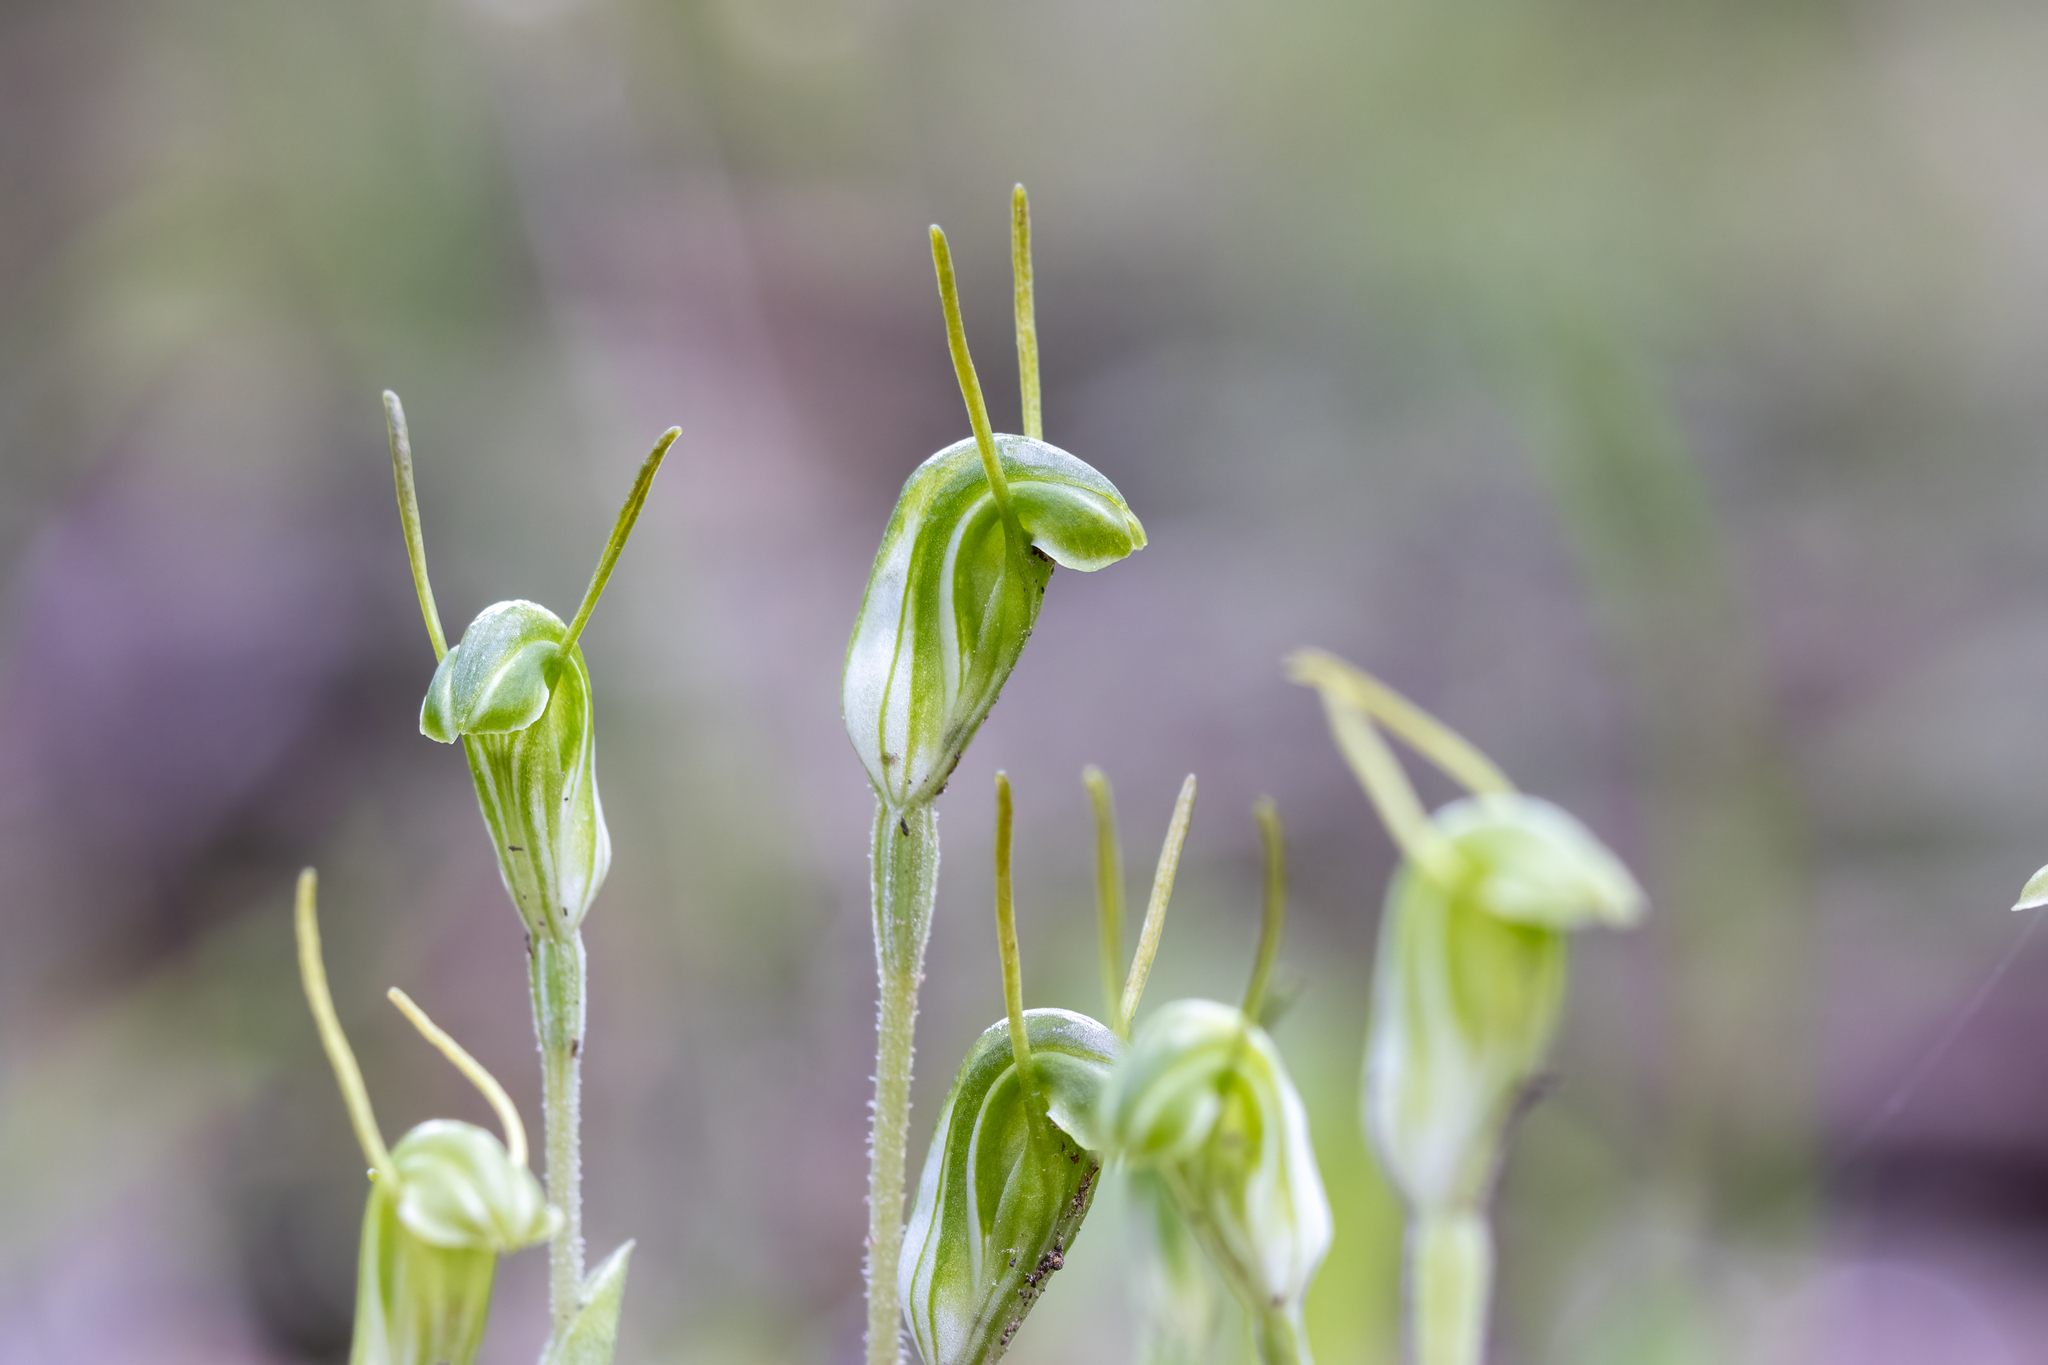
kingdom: Plantae
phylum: Tracheophyta
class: Liliopsida
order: Asparagales
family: Orchidaceae
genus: Pterostylis
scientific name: Pterostylis nana
